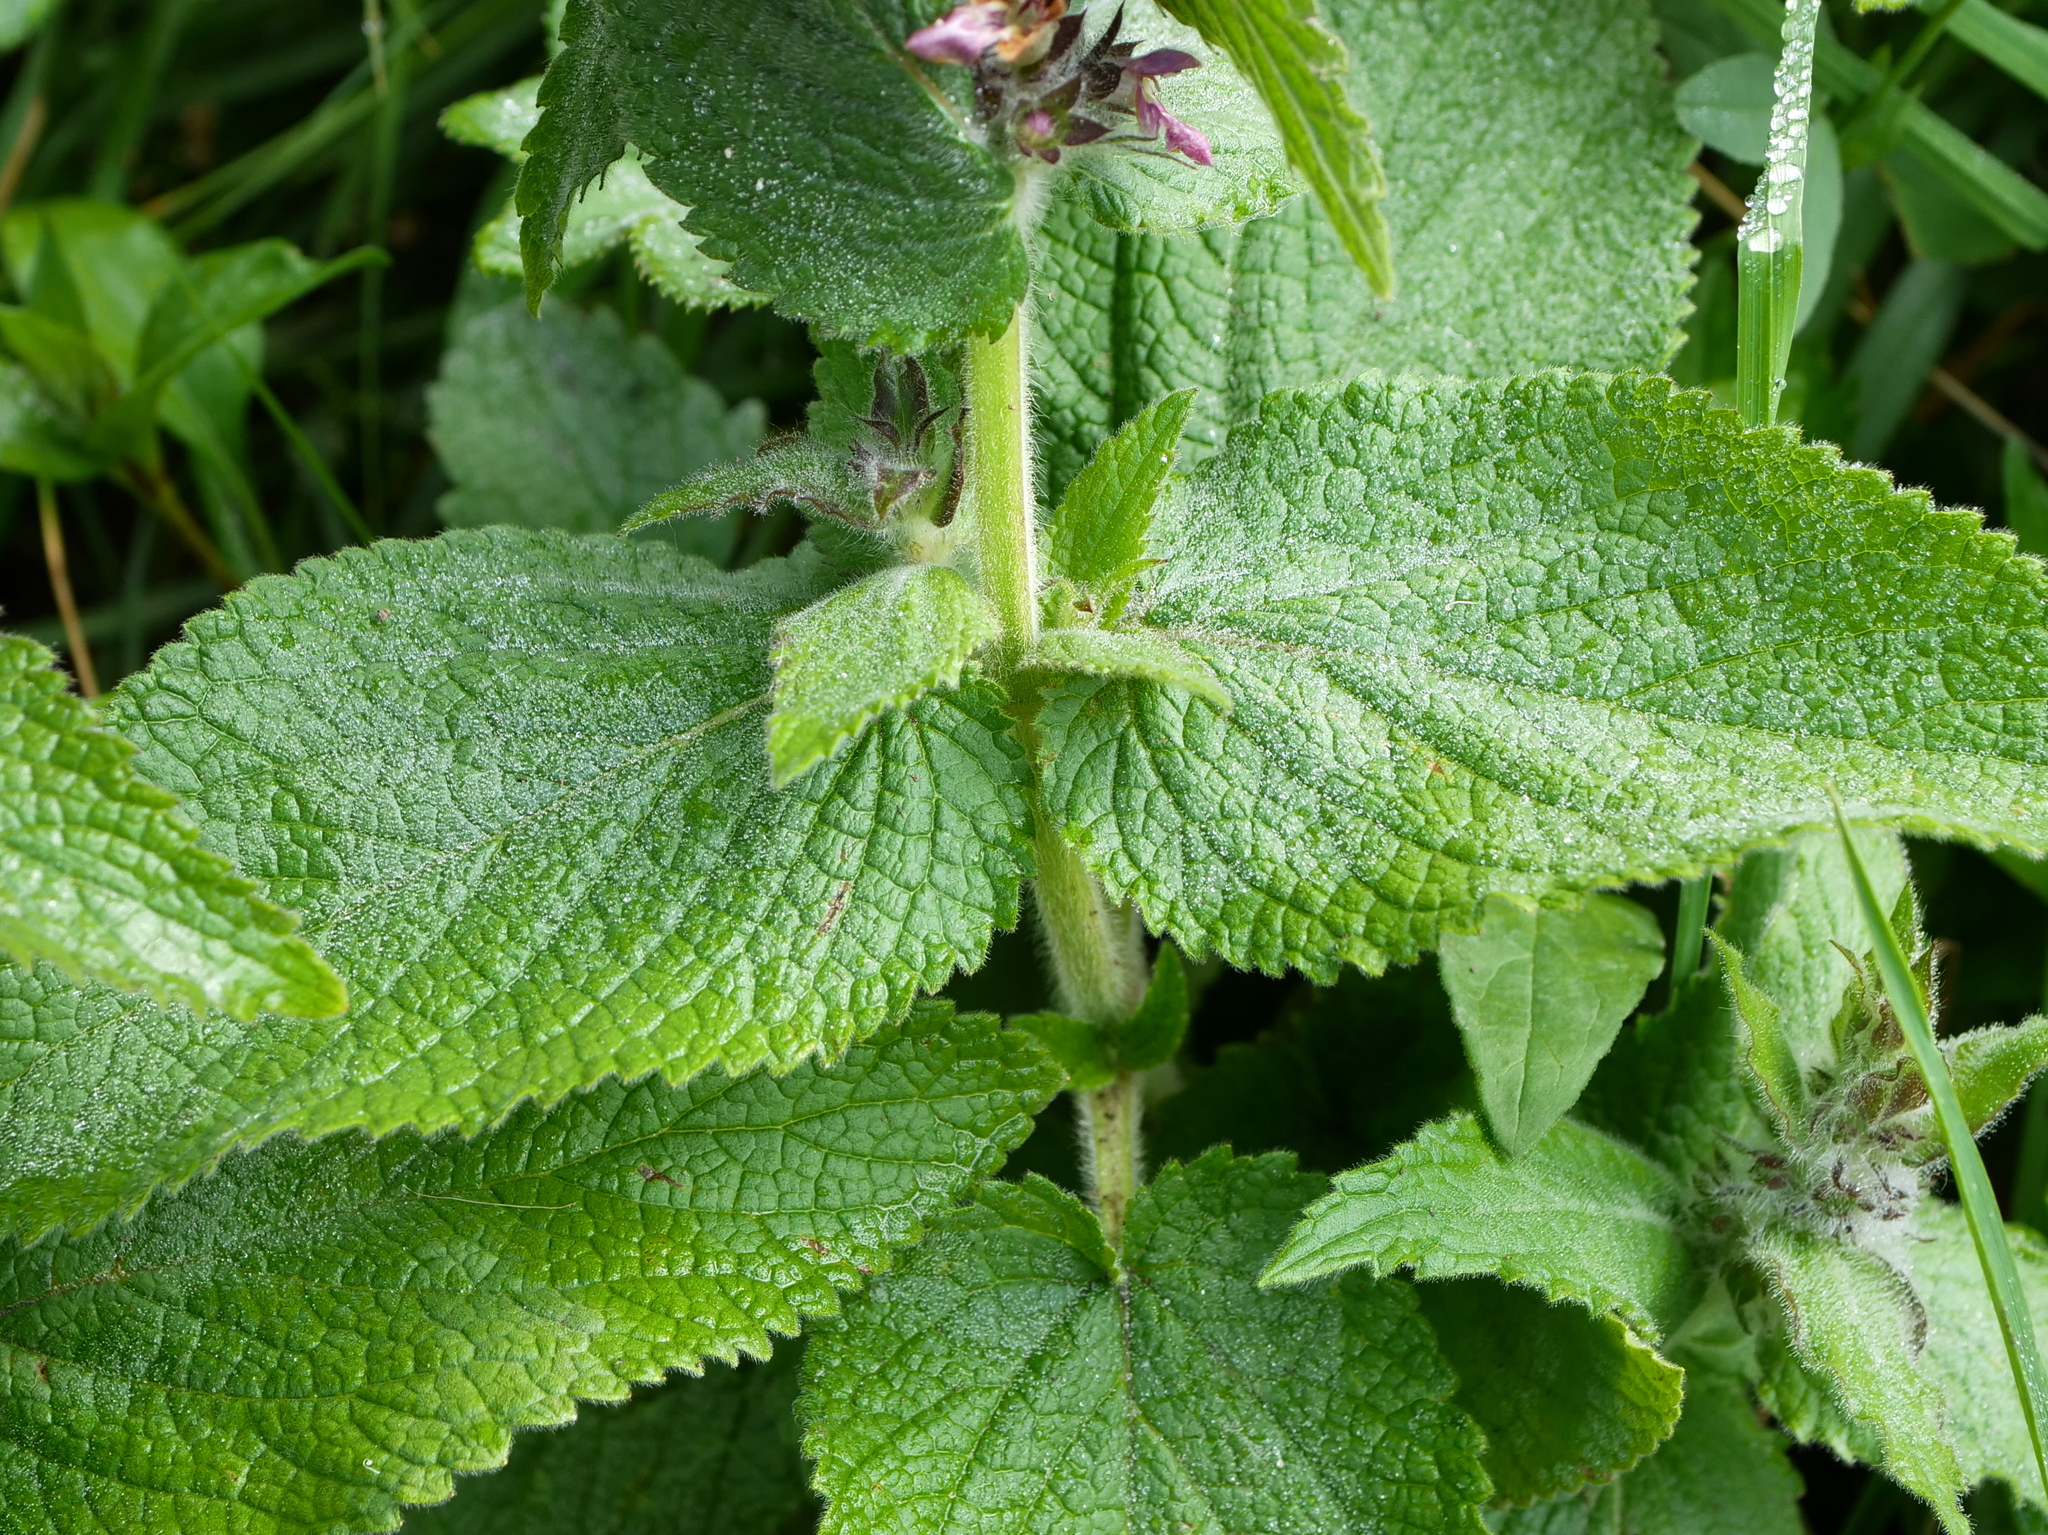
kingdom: Plantae
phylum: Tracheophyta
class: Magnoliopsida
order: Lamiales
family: Lamiaceae
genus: Stachys
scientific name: Stachys alpina
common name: Limestone woundwort
